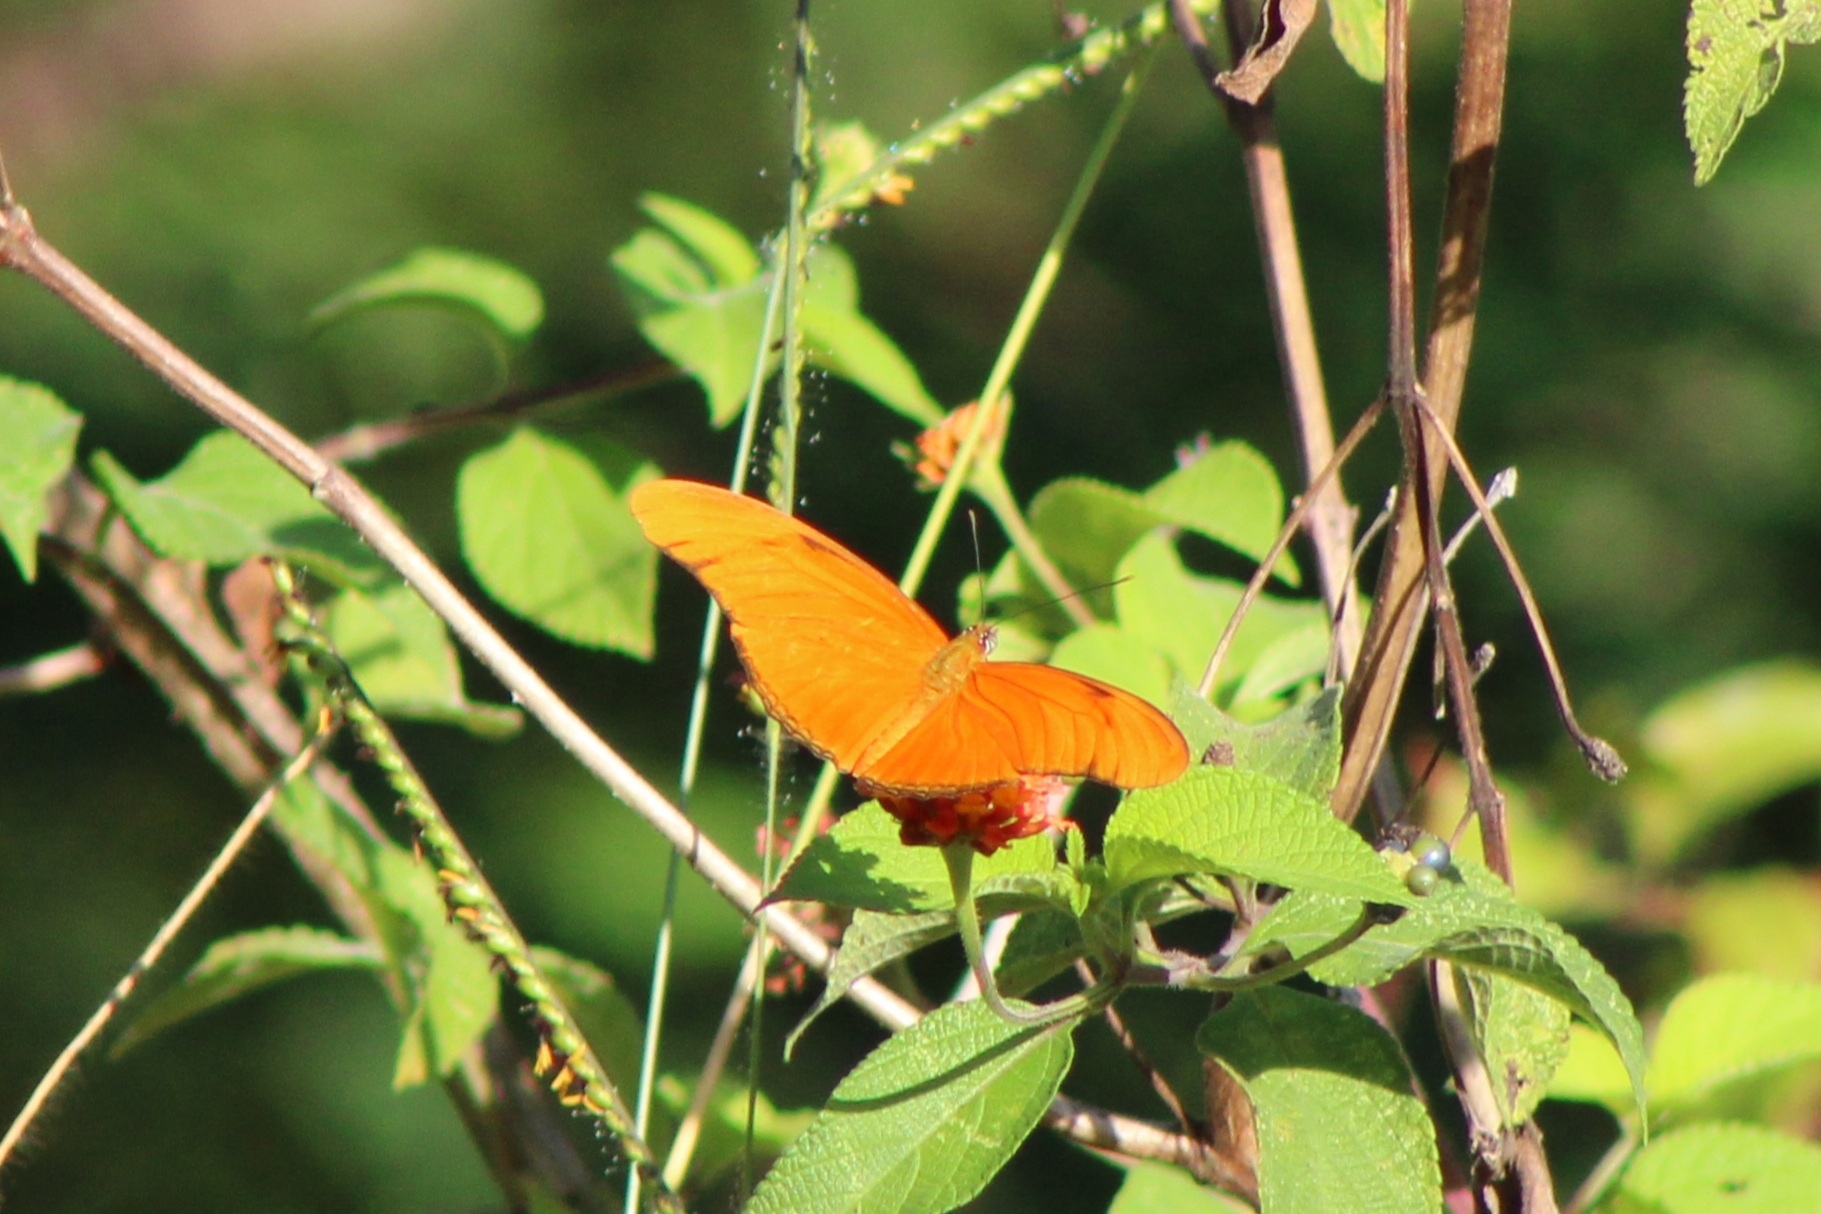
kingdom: Animalia
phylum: Arthropoda
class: Insecta
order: Lepidoptera
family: Nymphalidae
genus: Dryas
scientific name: Dryas iulia
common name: Flambeau
